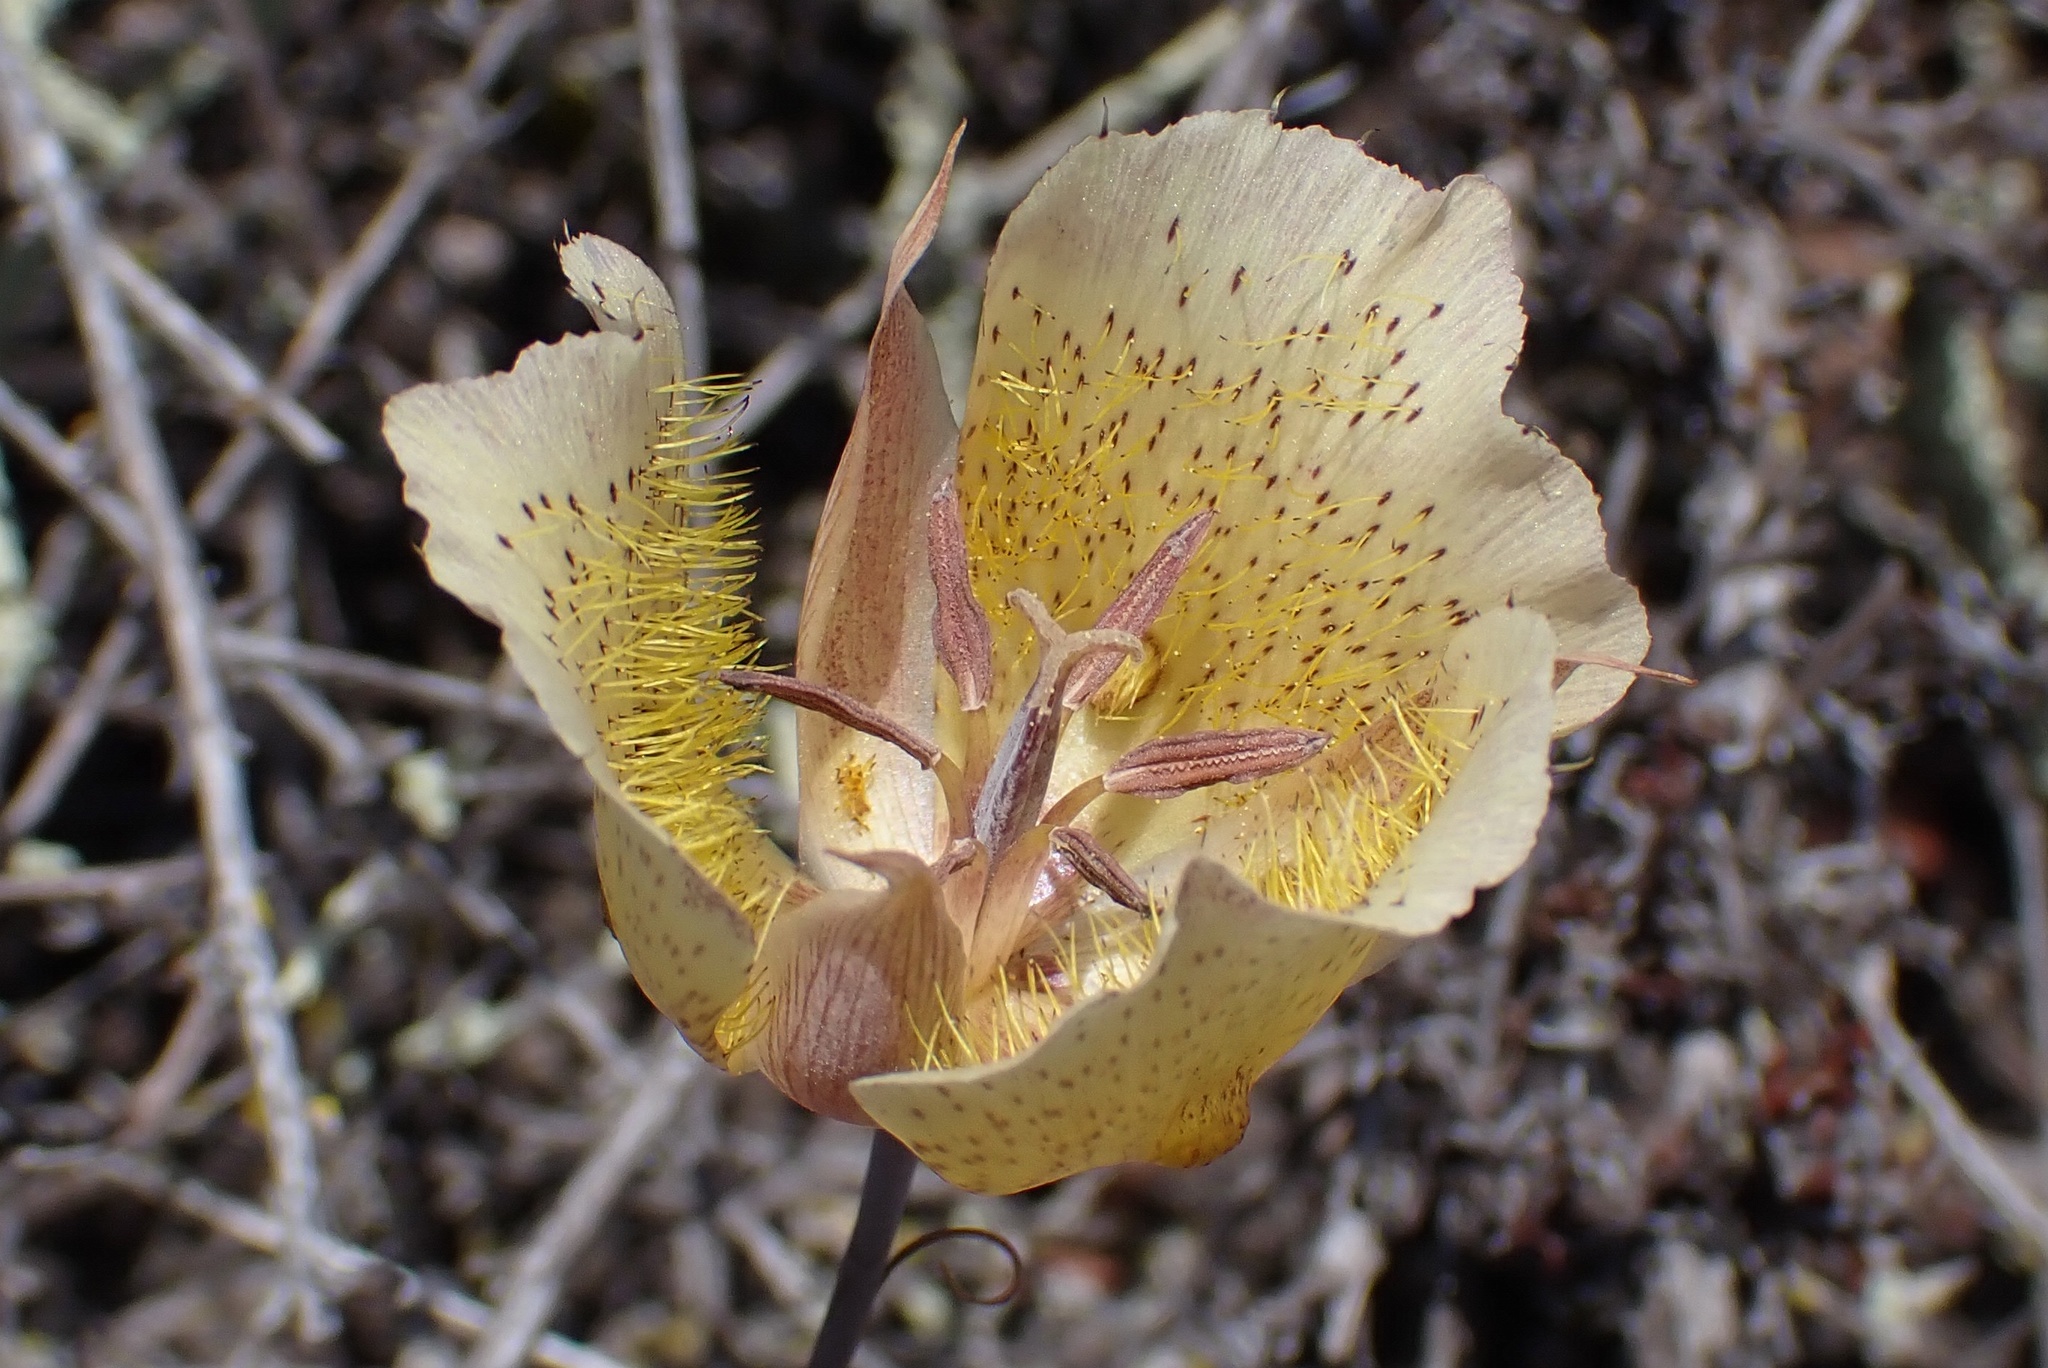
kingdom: Plantae
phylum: Tracheophyta
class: Liliopsida
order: Liliales
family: Liliaceae
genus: Calochortus
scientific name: Calochortus weedii
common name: Weed's mariposa-lily
